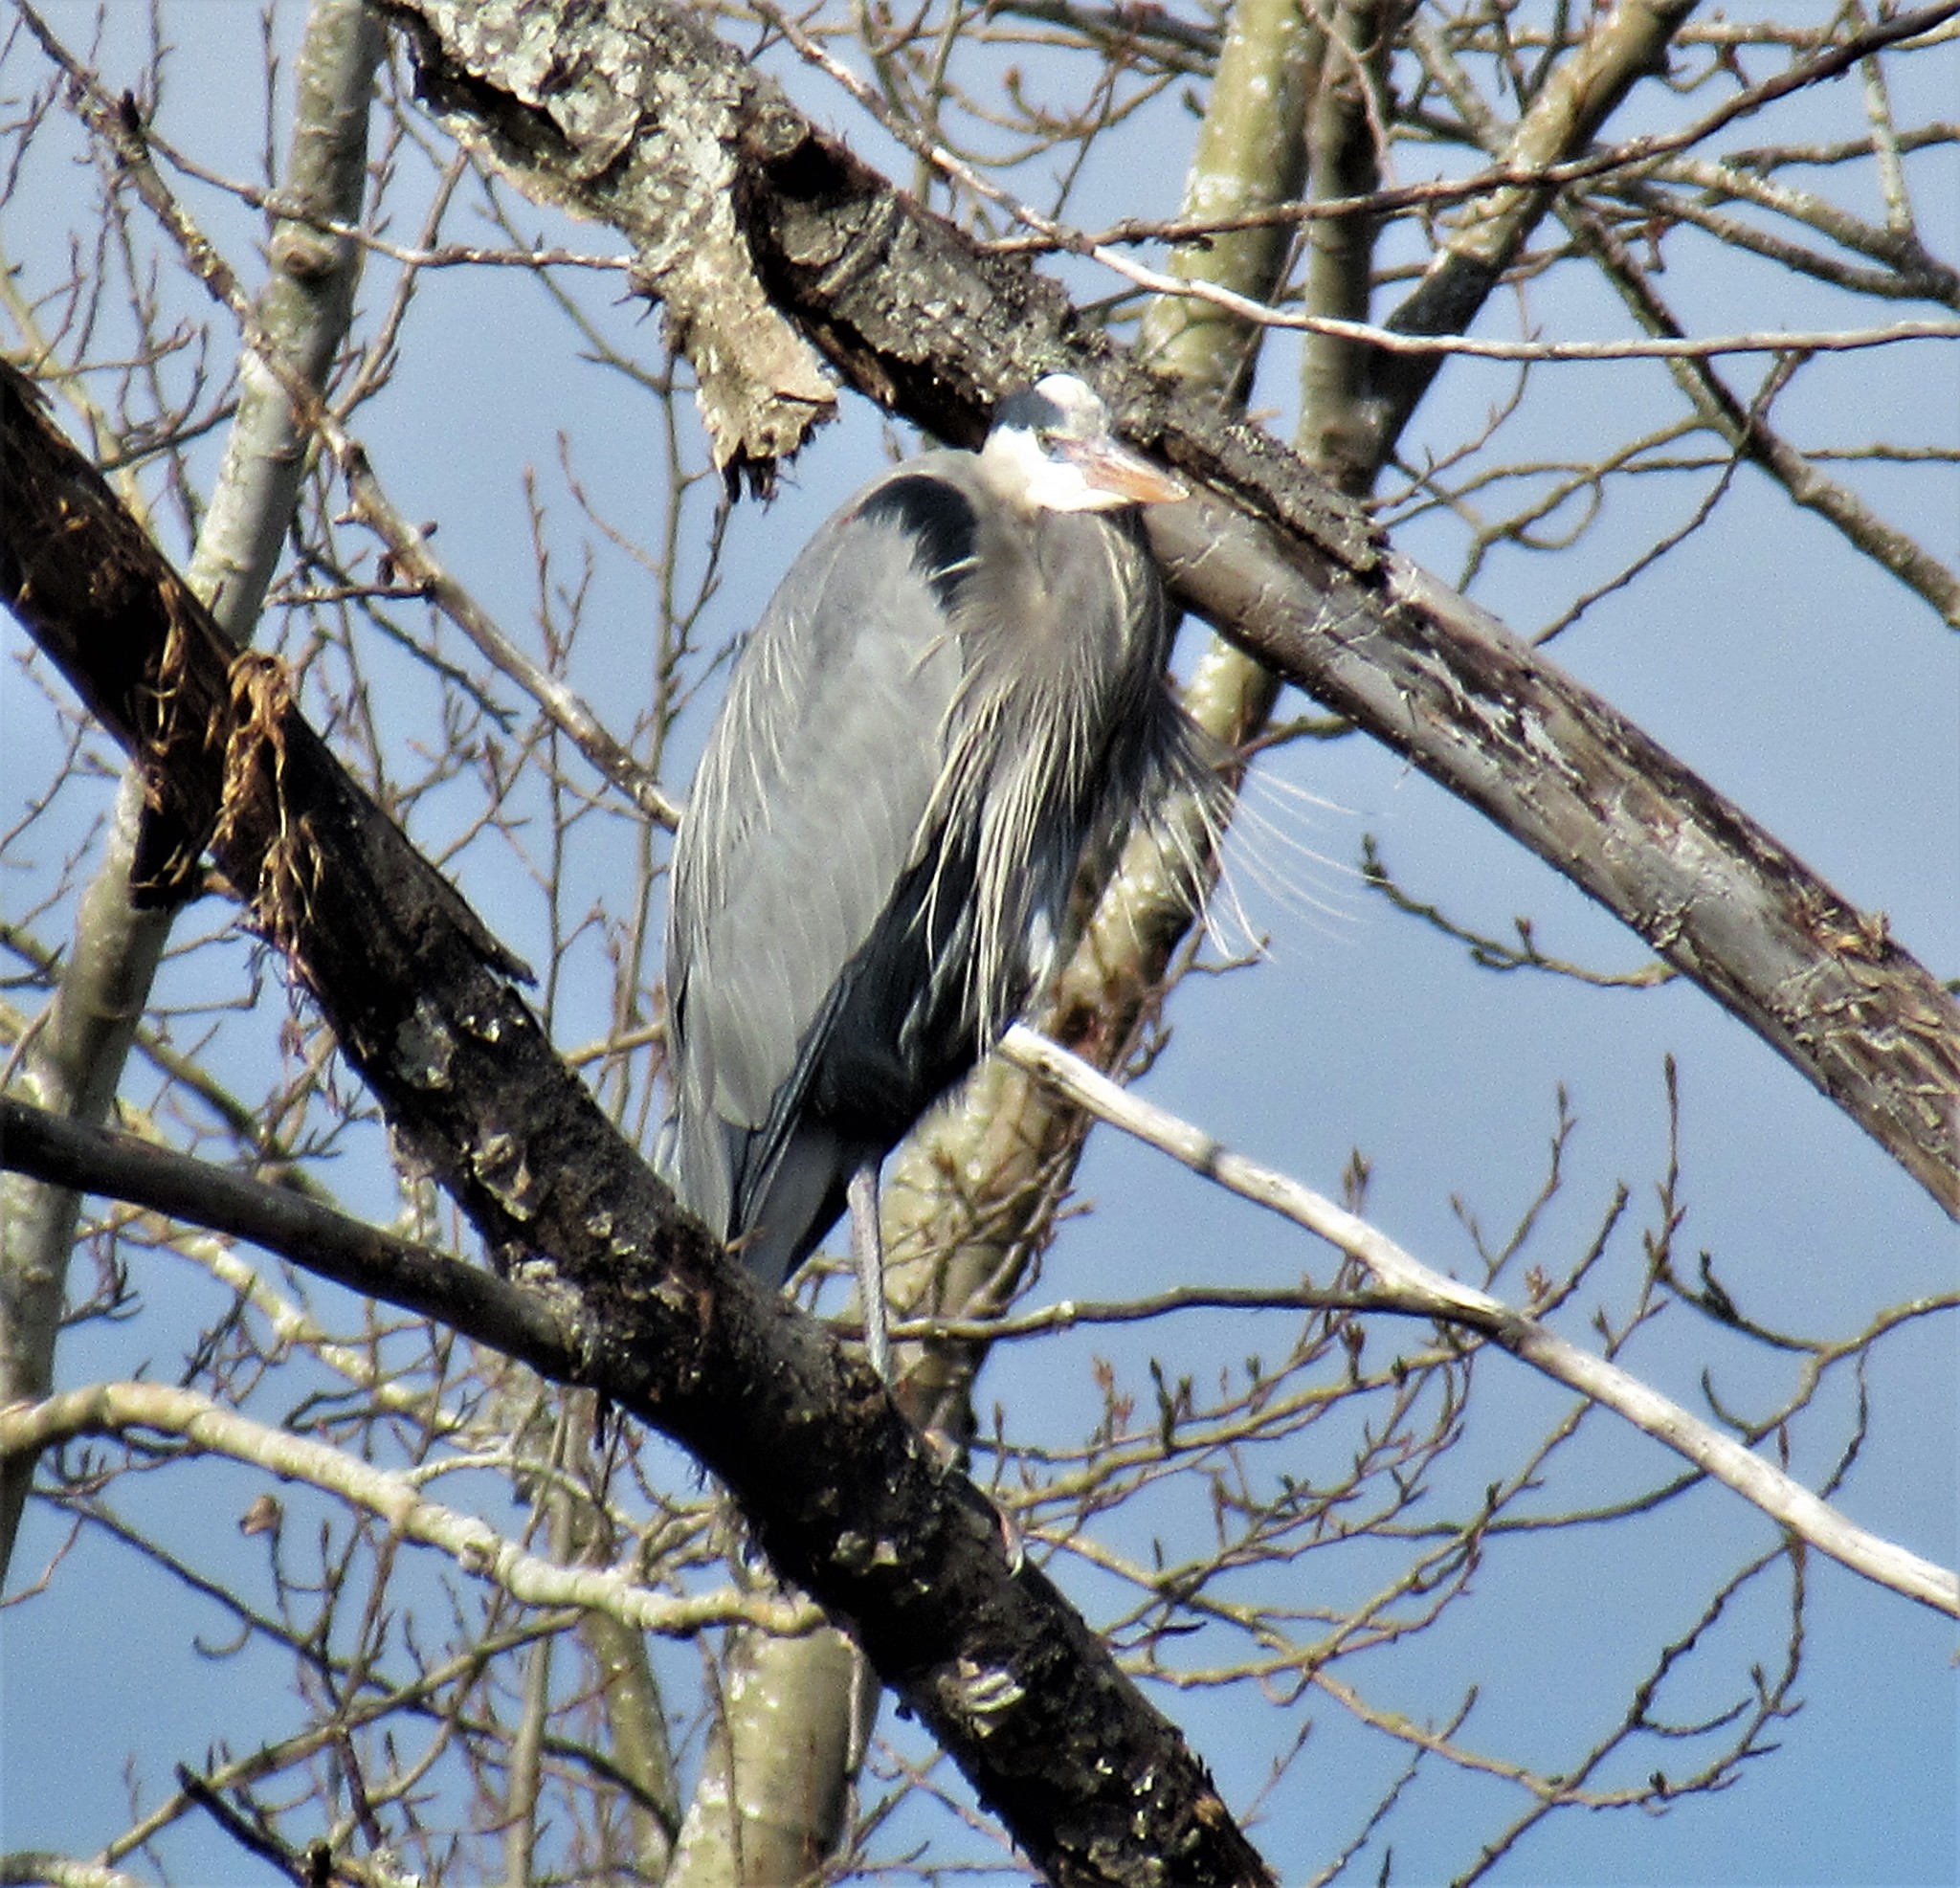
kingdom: Animalia
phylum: Chordata
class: Aves
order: Pelecaniformes
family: Ardeidae
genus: Ardea
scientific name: Ardea herodias
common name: Great blue heron
